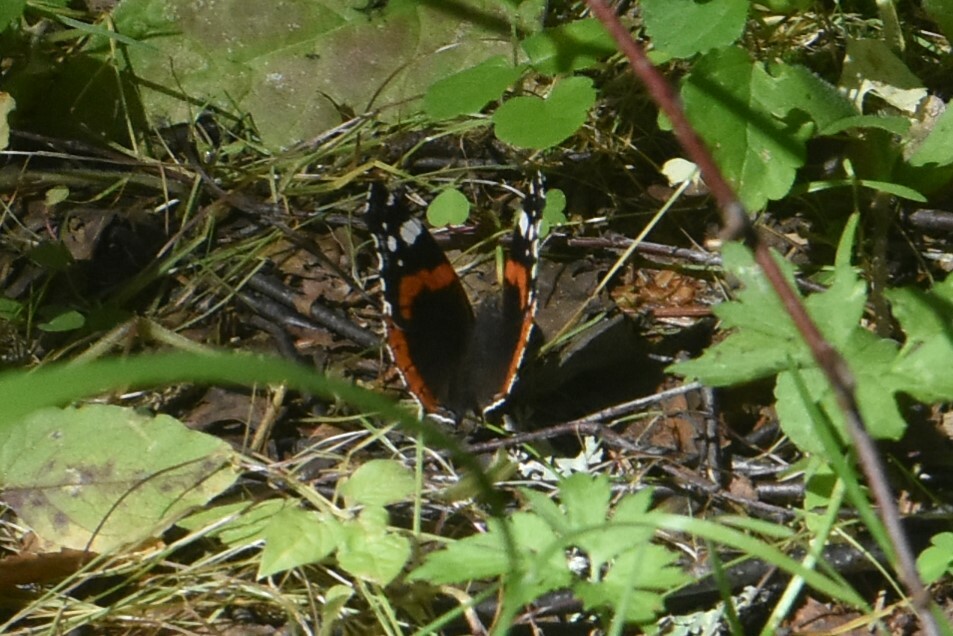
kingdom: Animalia
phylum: Arthropoda
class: Insecta
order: Lepidoptera
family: Nymphalidae
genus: Vanessa
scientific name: Vanessa atalanta
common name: Red admiral
